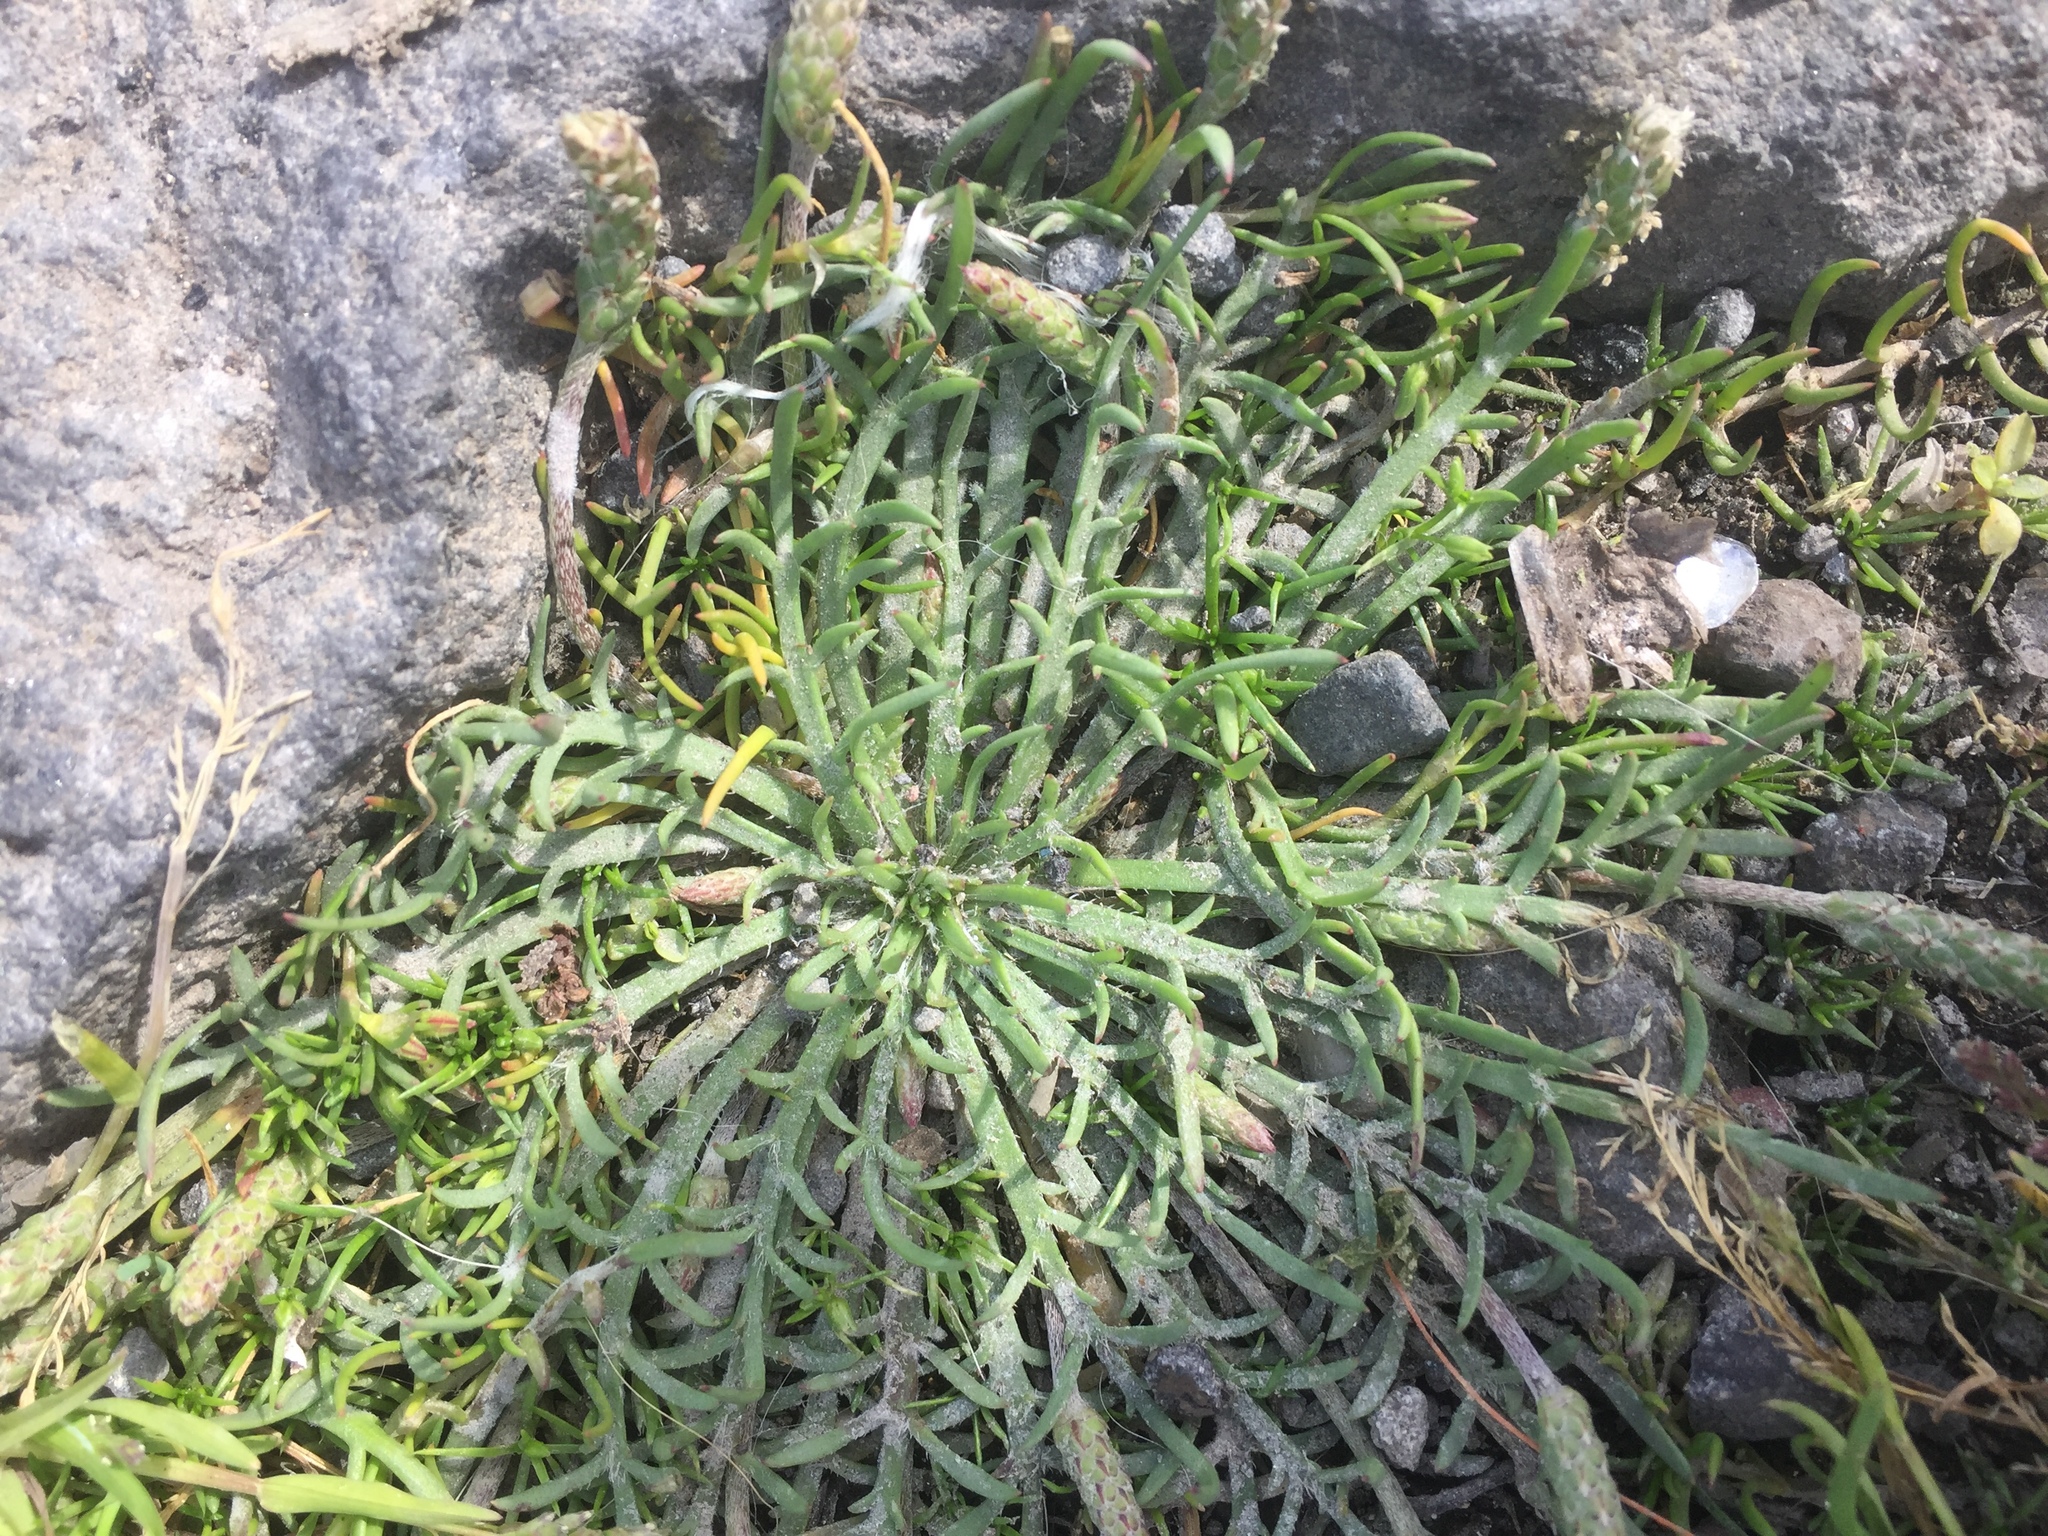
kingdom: Plantae
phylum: Tracheophyta
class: Magnoliopsida
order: Lamiales
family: Plantaginaceae
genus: Plantago
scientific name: Plantago coronopus
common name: Buck's-horn plantain
